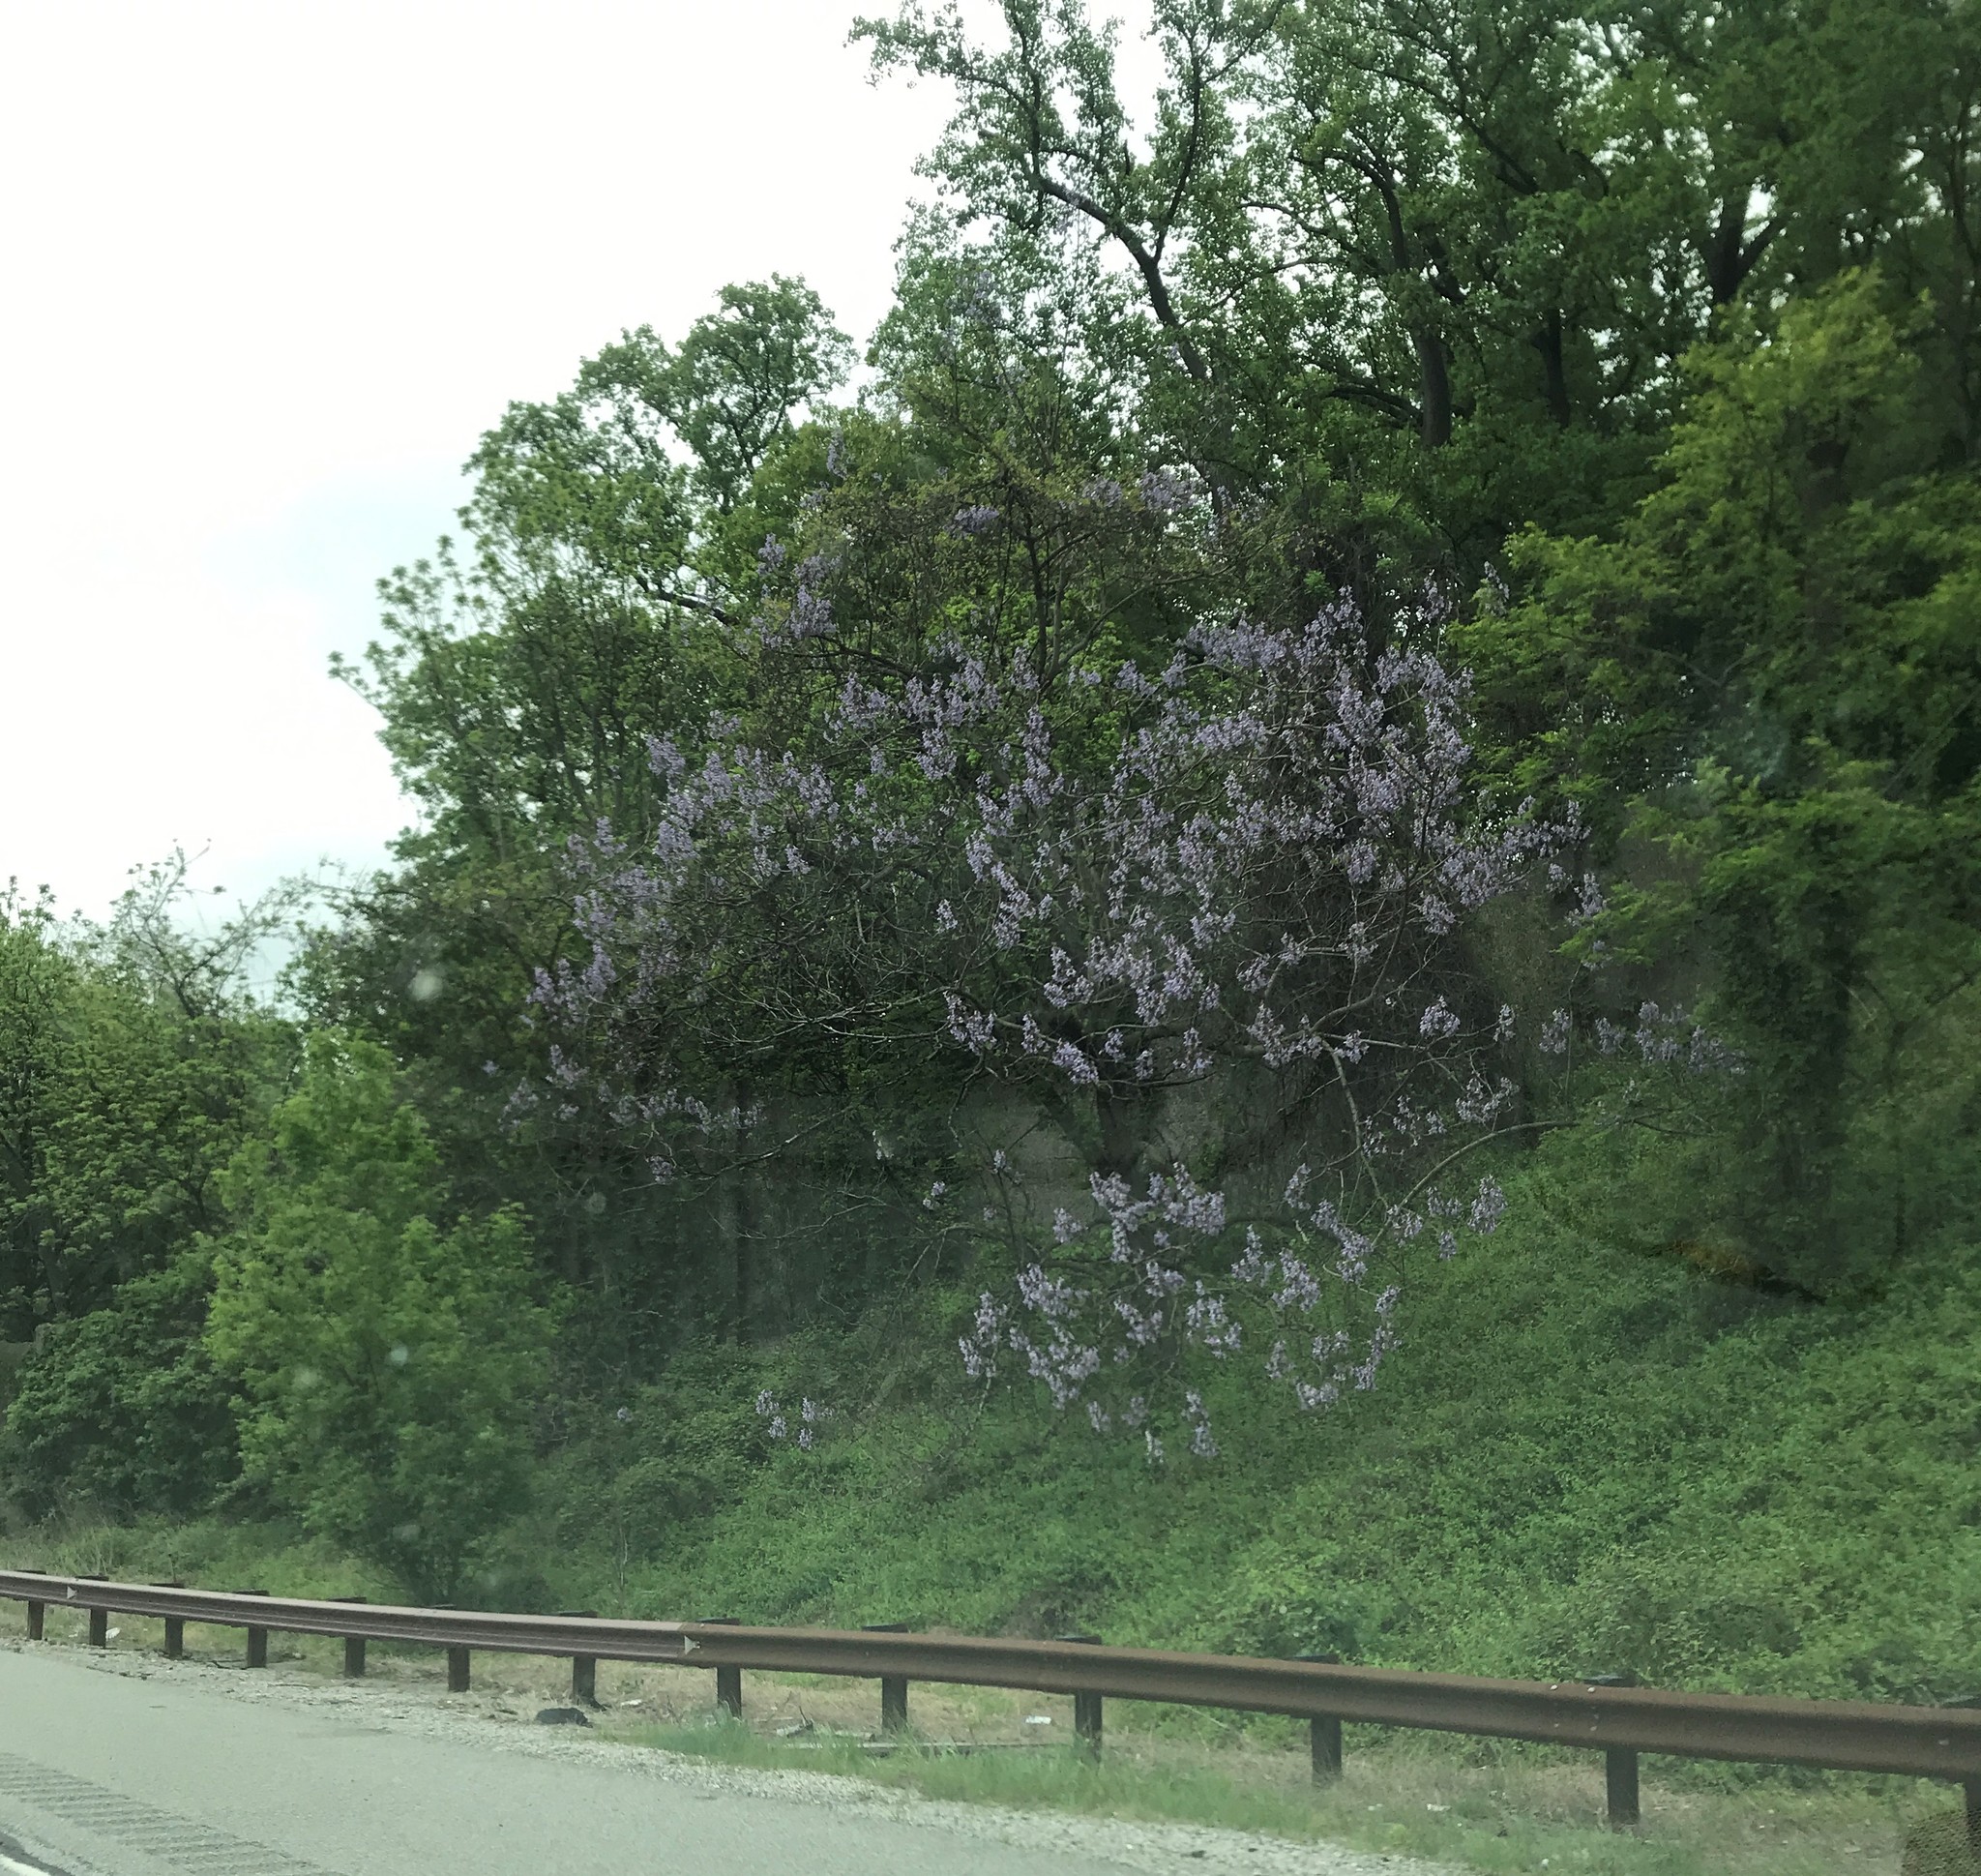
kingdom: Plantae
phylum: Tracheophyta
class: Magnoliopsida
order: Lamiales
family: Paulowniaceae
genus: Paulownia
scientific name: Paulownia tomentosa
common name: Foxglove-tree
